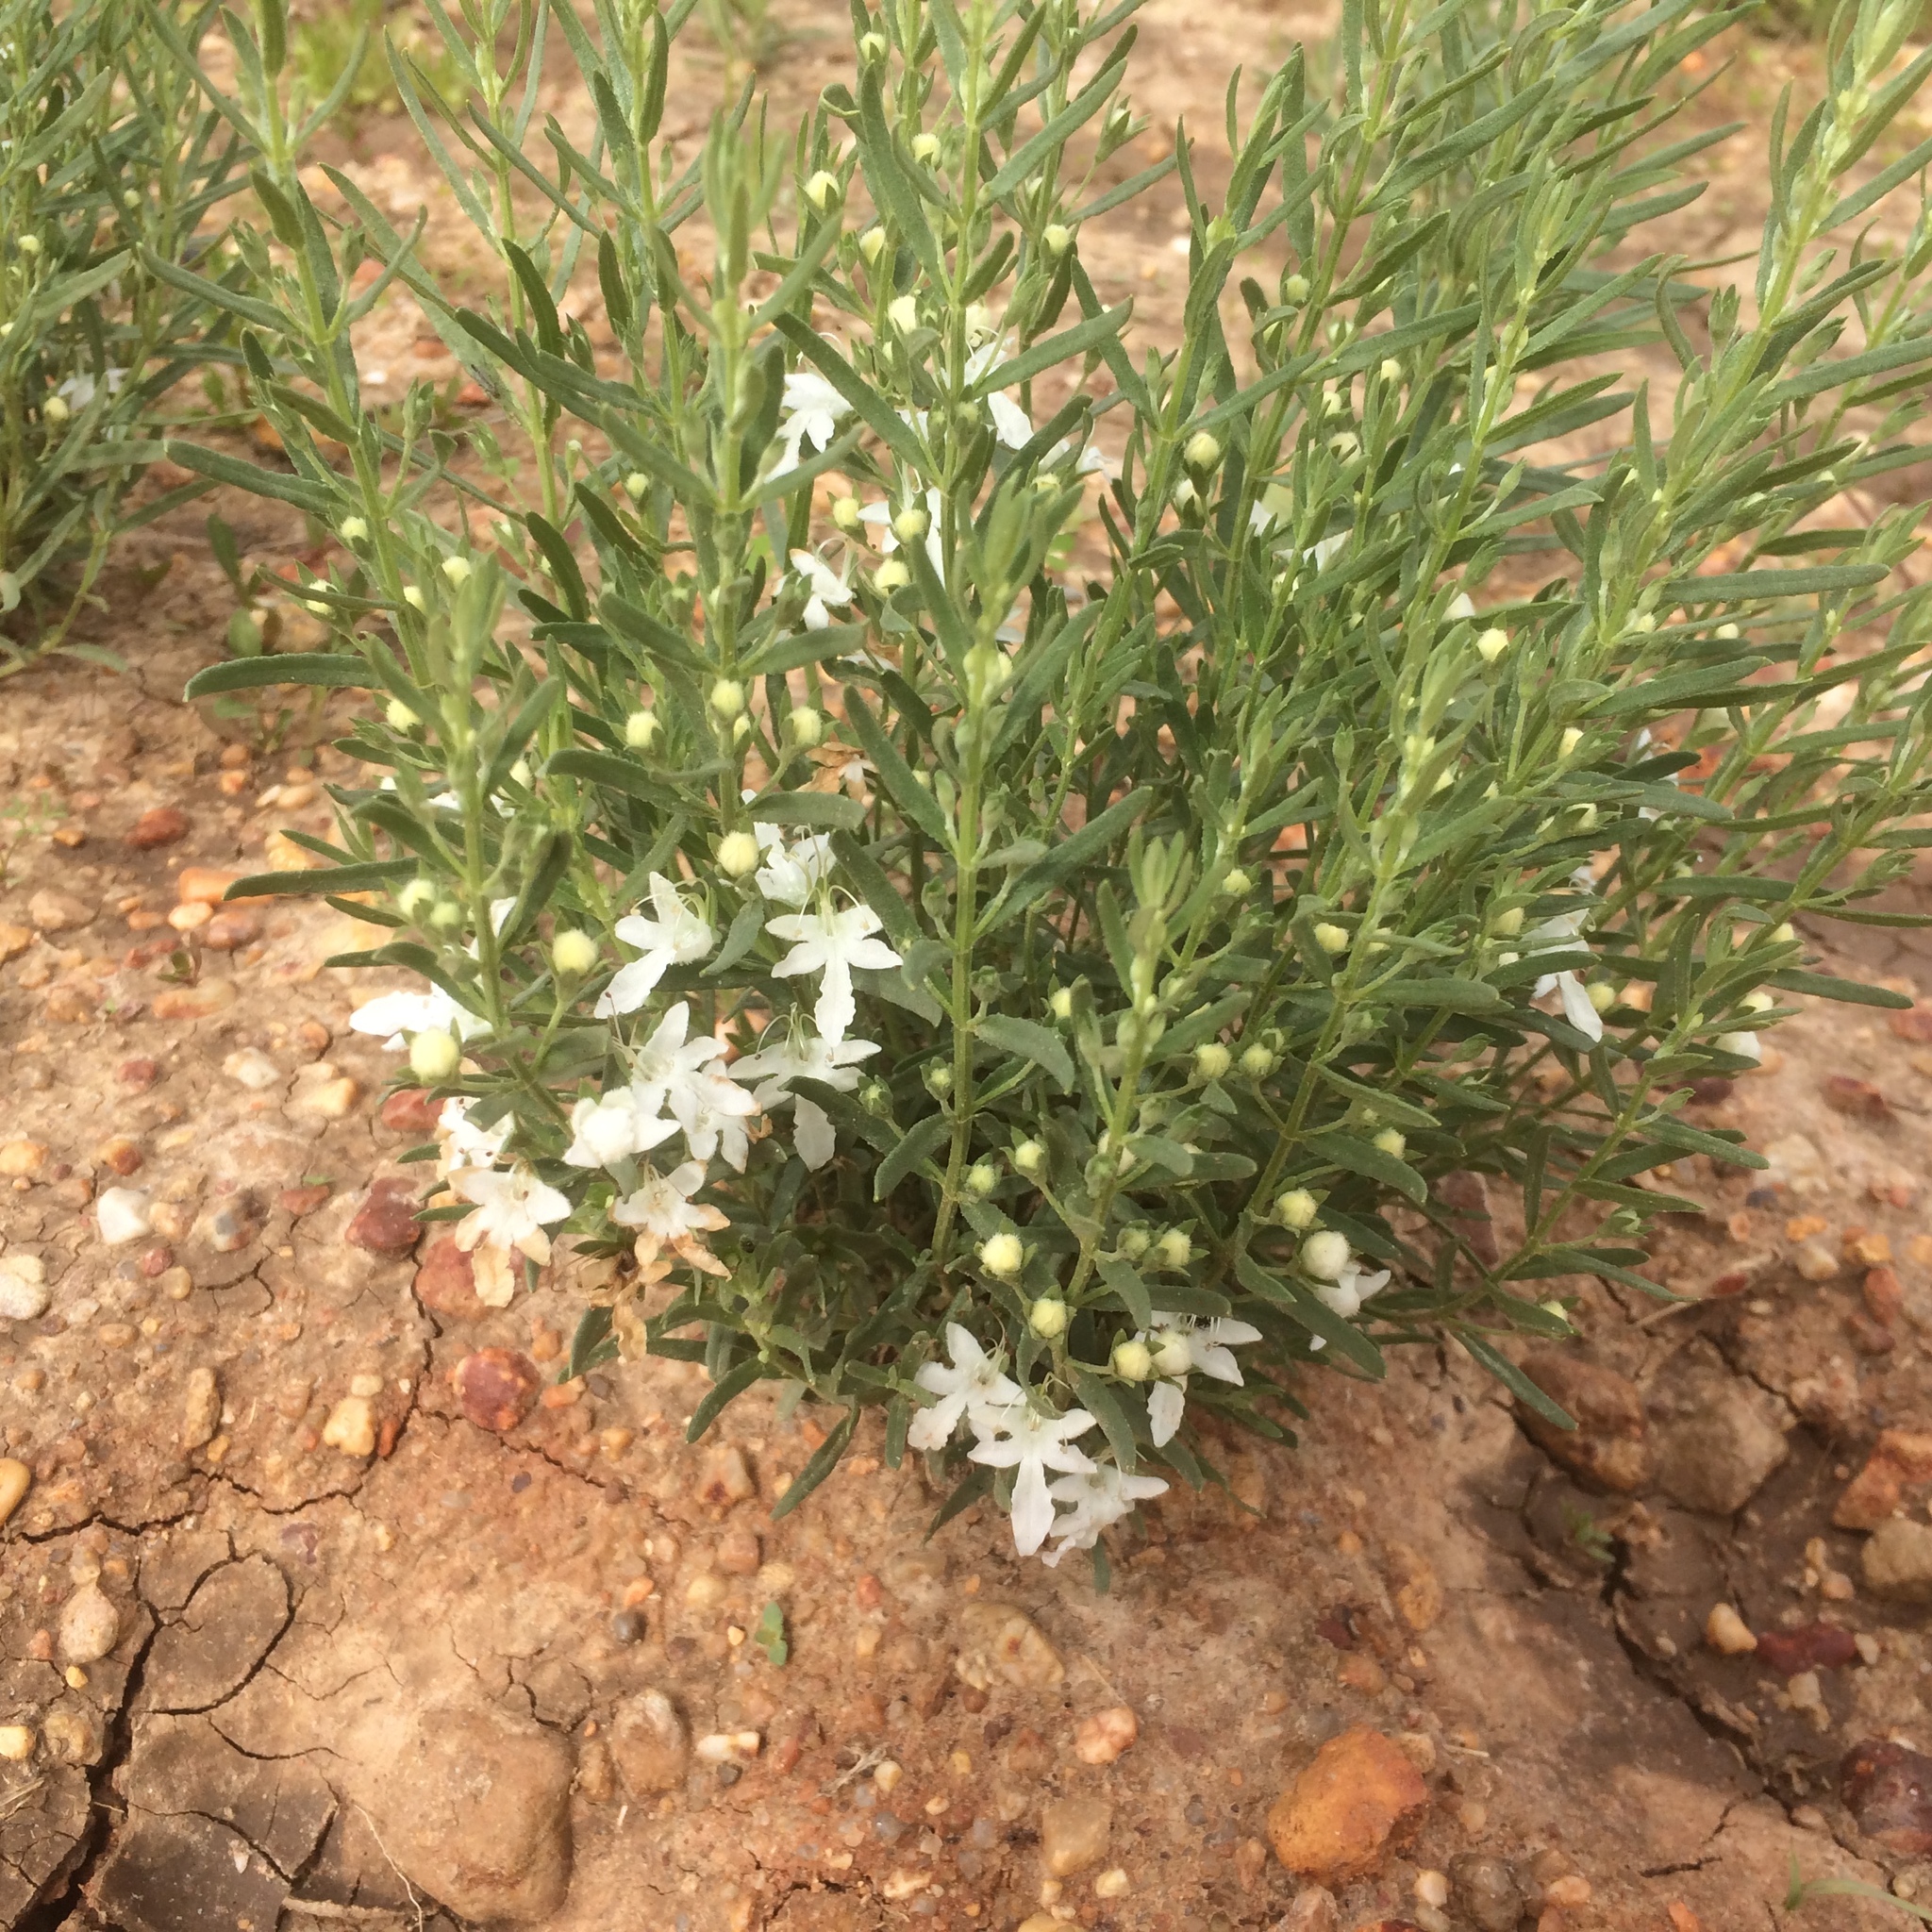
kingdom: Plantae
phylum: Tracheophyta
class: Magnoliopsida
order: Lamiales
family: Lamiaceae
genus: Teucrium
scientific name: Teucrium integrifolium
